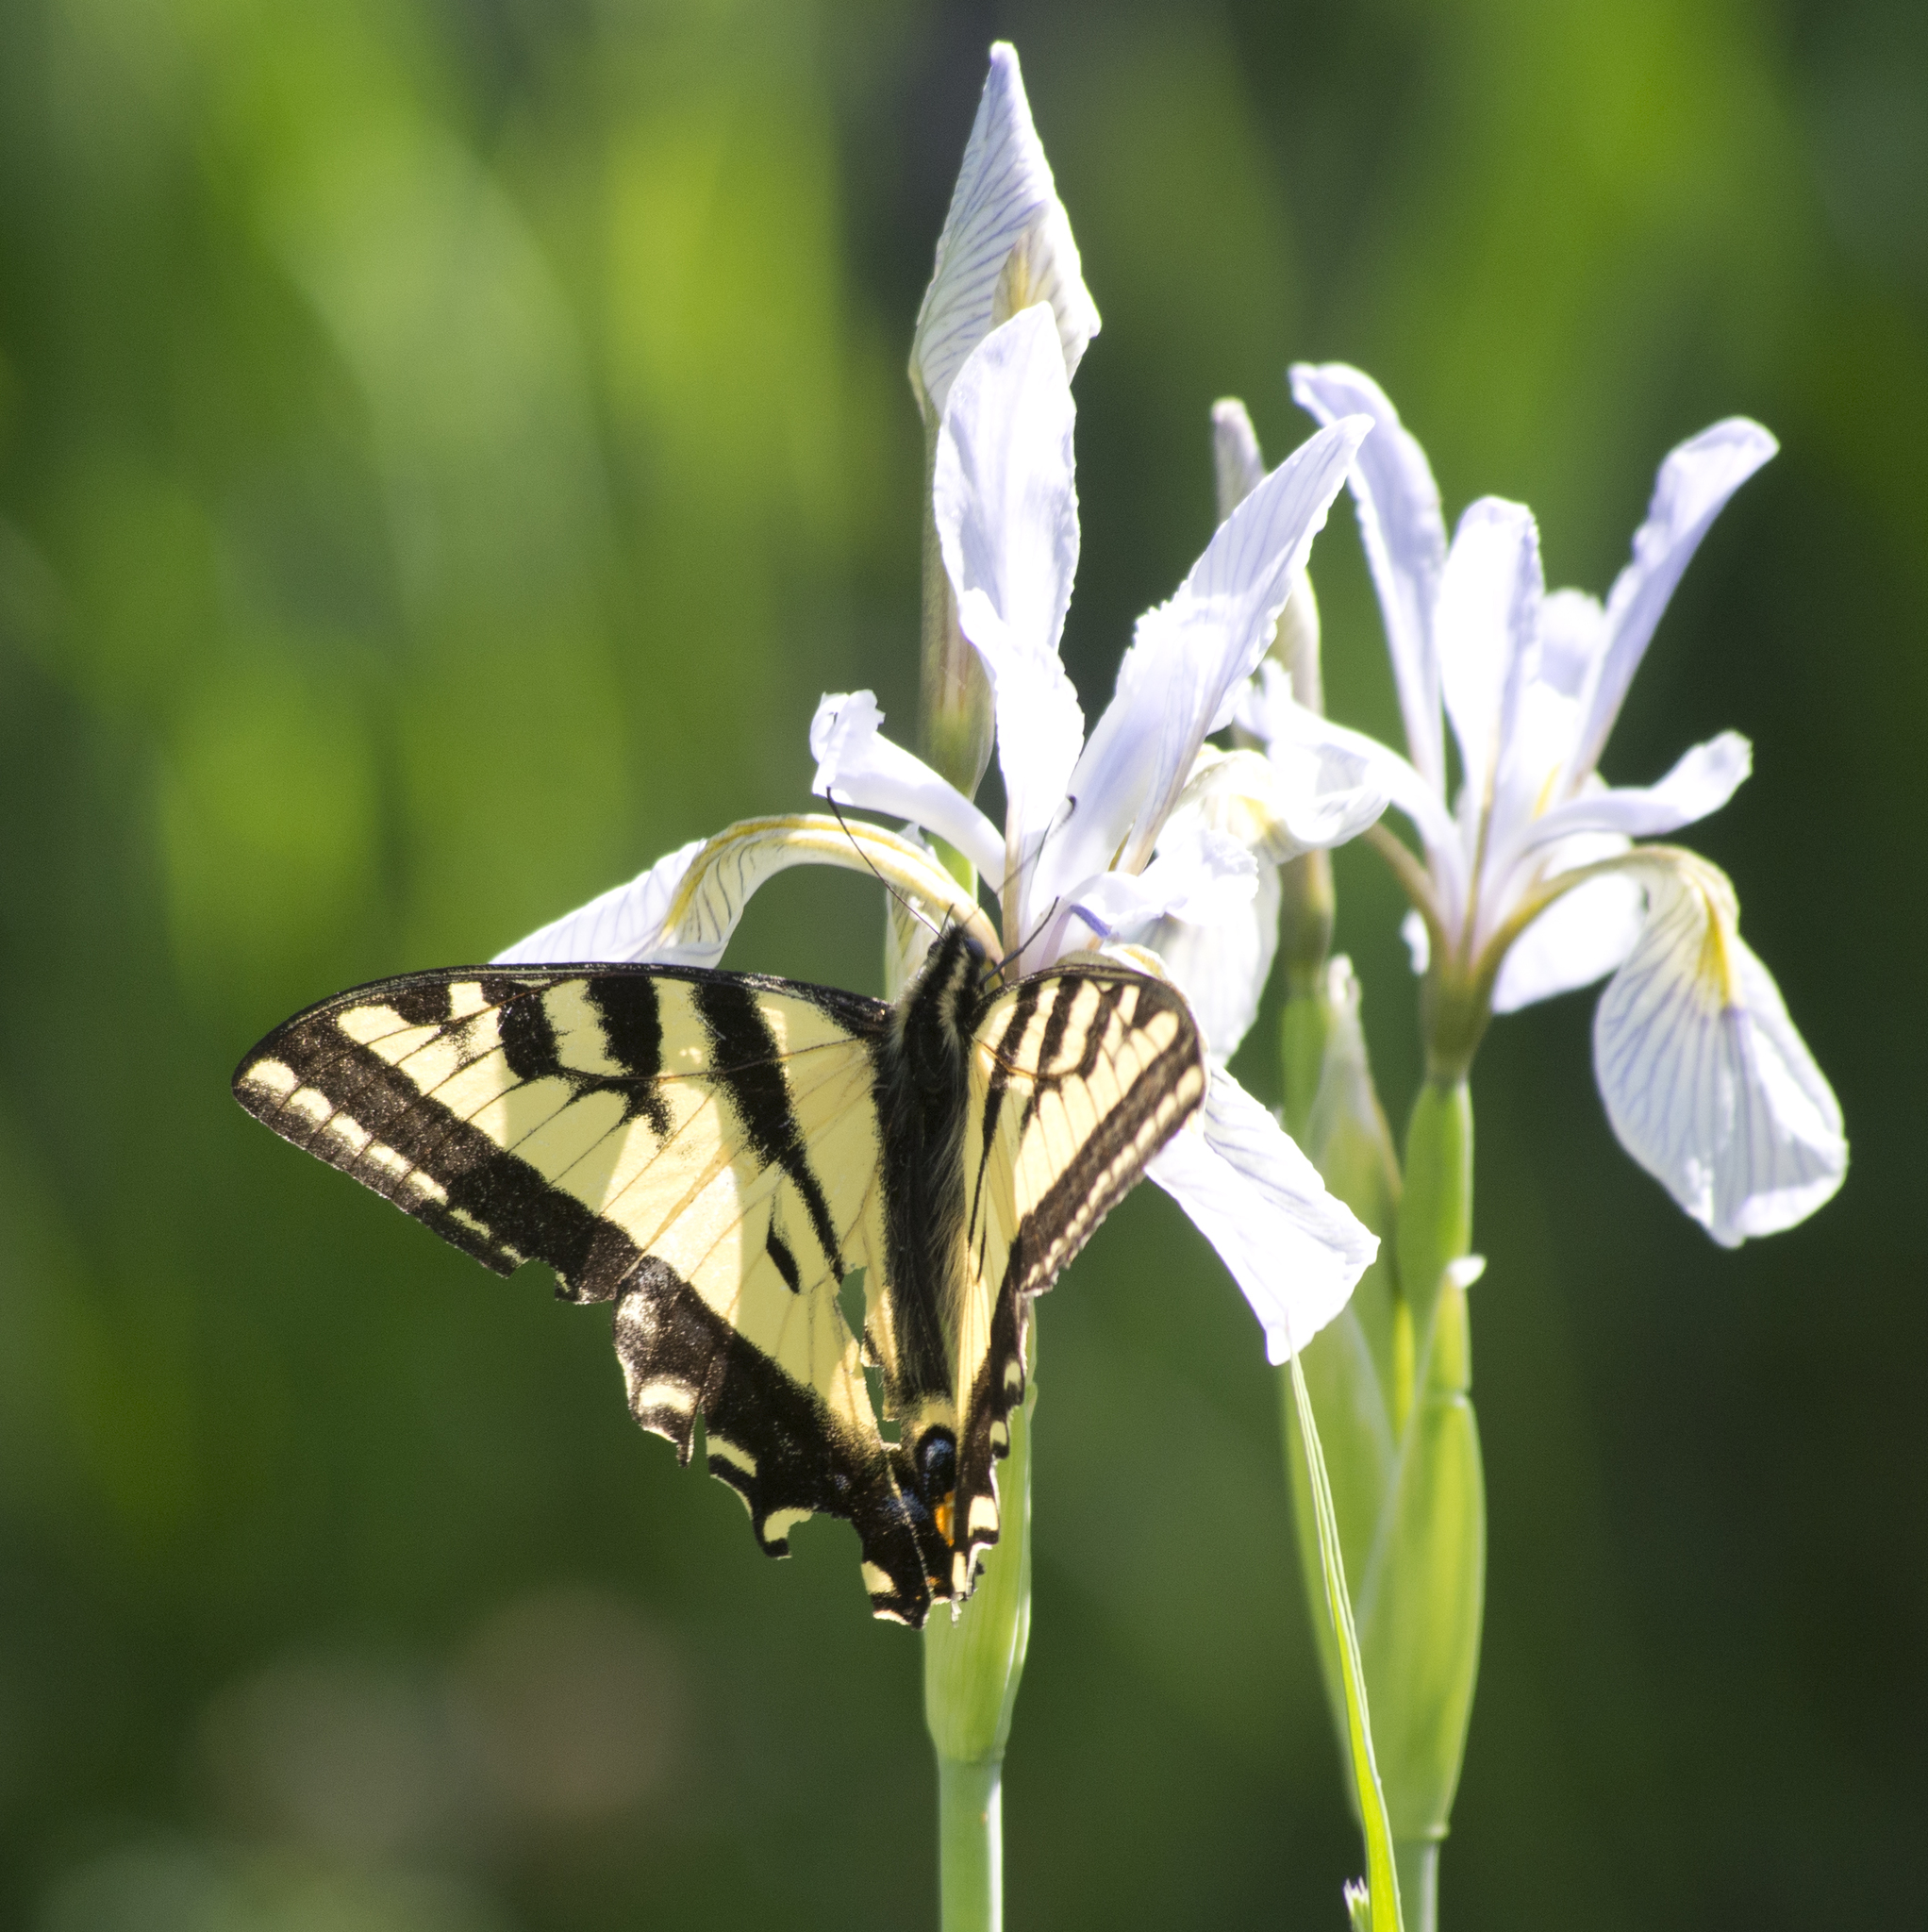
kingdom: Animalia
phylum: Arthropoda
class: Insecta
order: Lepidoptera
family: Papilionidae
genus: Papilio
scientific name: Papilio rutulus
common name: Western tiger swallowtail
